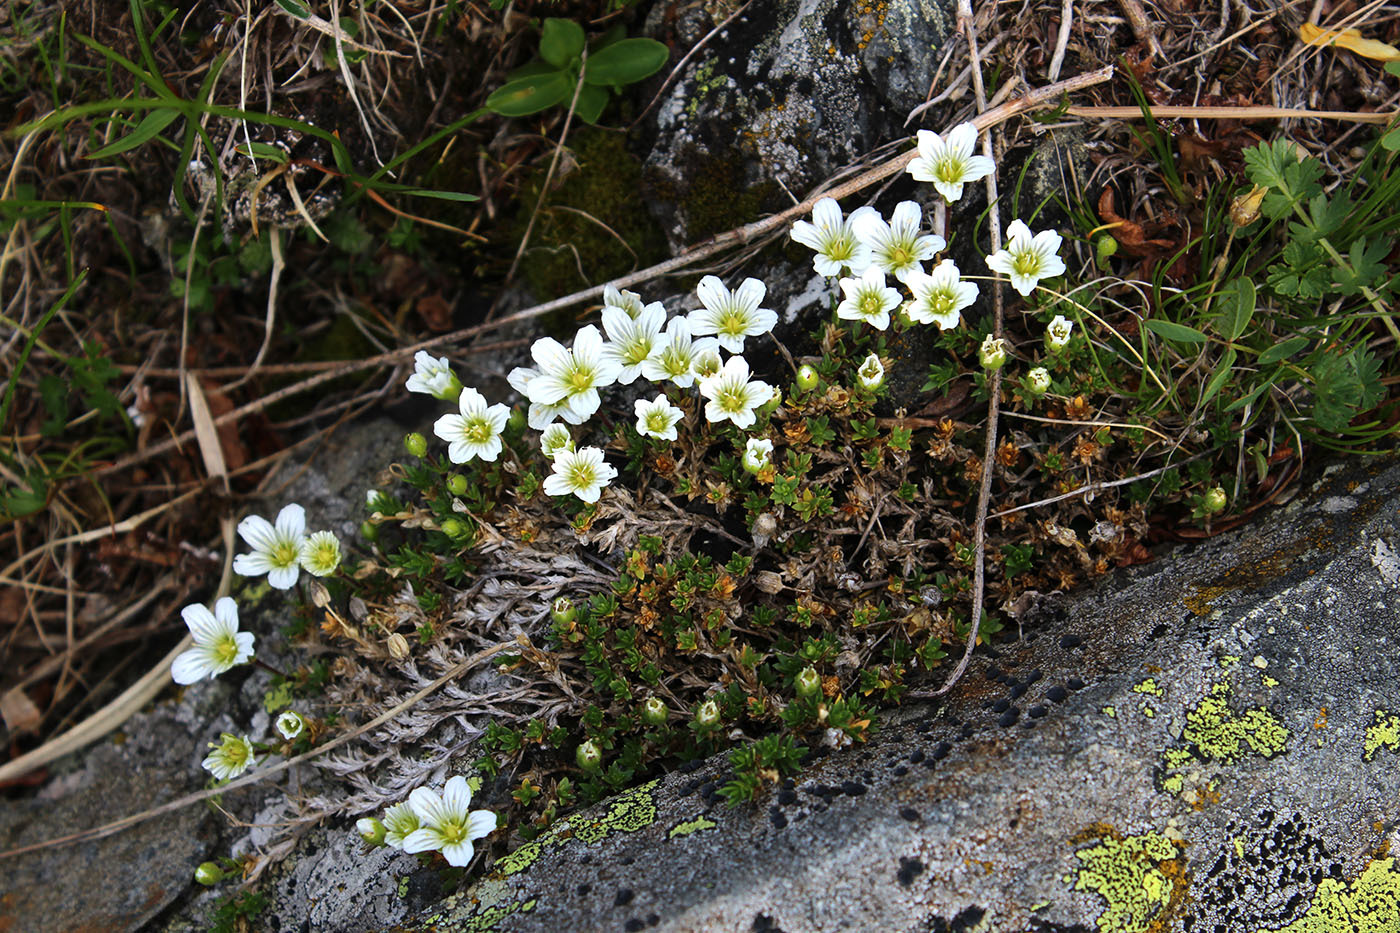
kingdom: Plantae
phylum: Tracheophyta
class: Magnoliopsida
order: Caryophyllales
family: Caryophyllaceae
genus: Pseudocherleria
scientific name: Pseudocherleria imbricata
